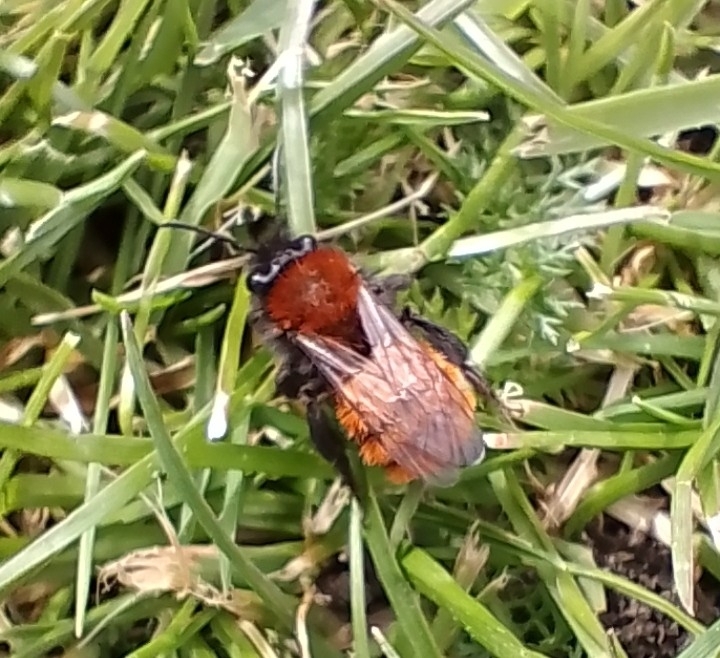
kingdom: Animalia
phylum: Arthropoda
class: Insecta
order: Hymenoptera
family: Andrenidae
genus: Andrena
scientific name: Andrena fulva
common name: Tawny mining bee
